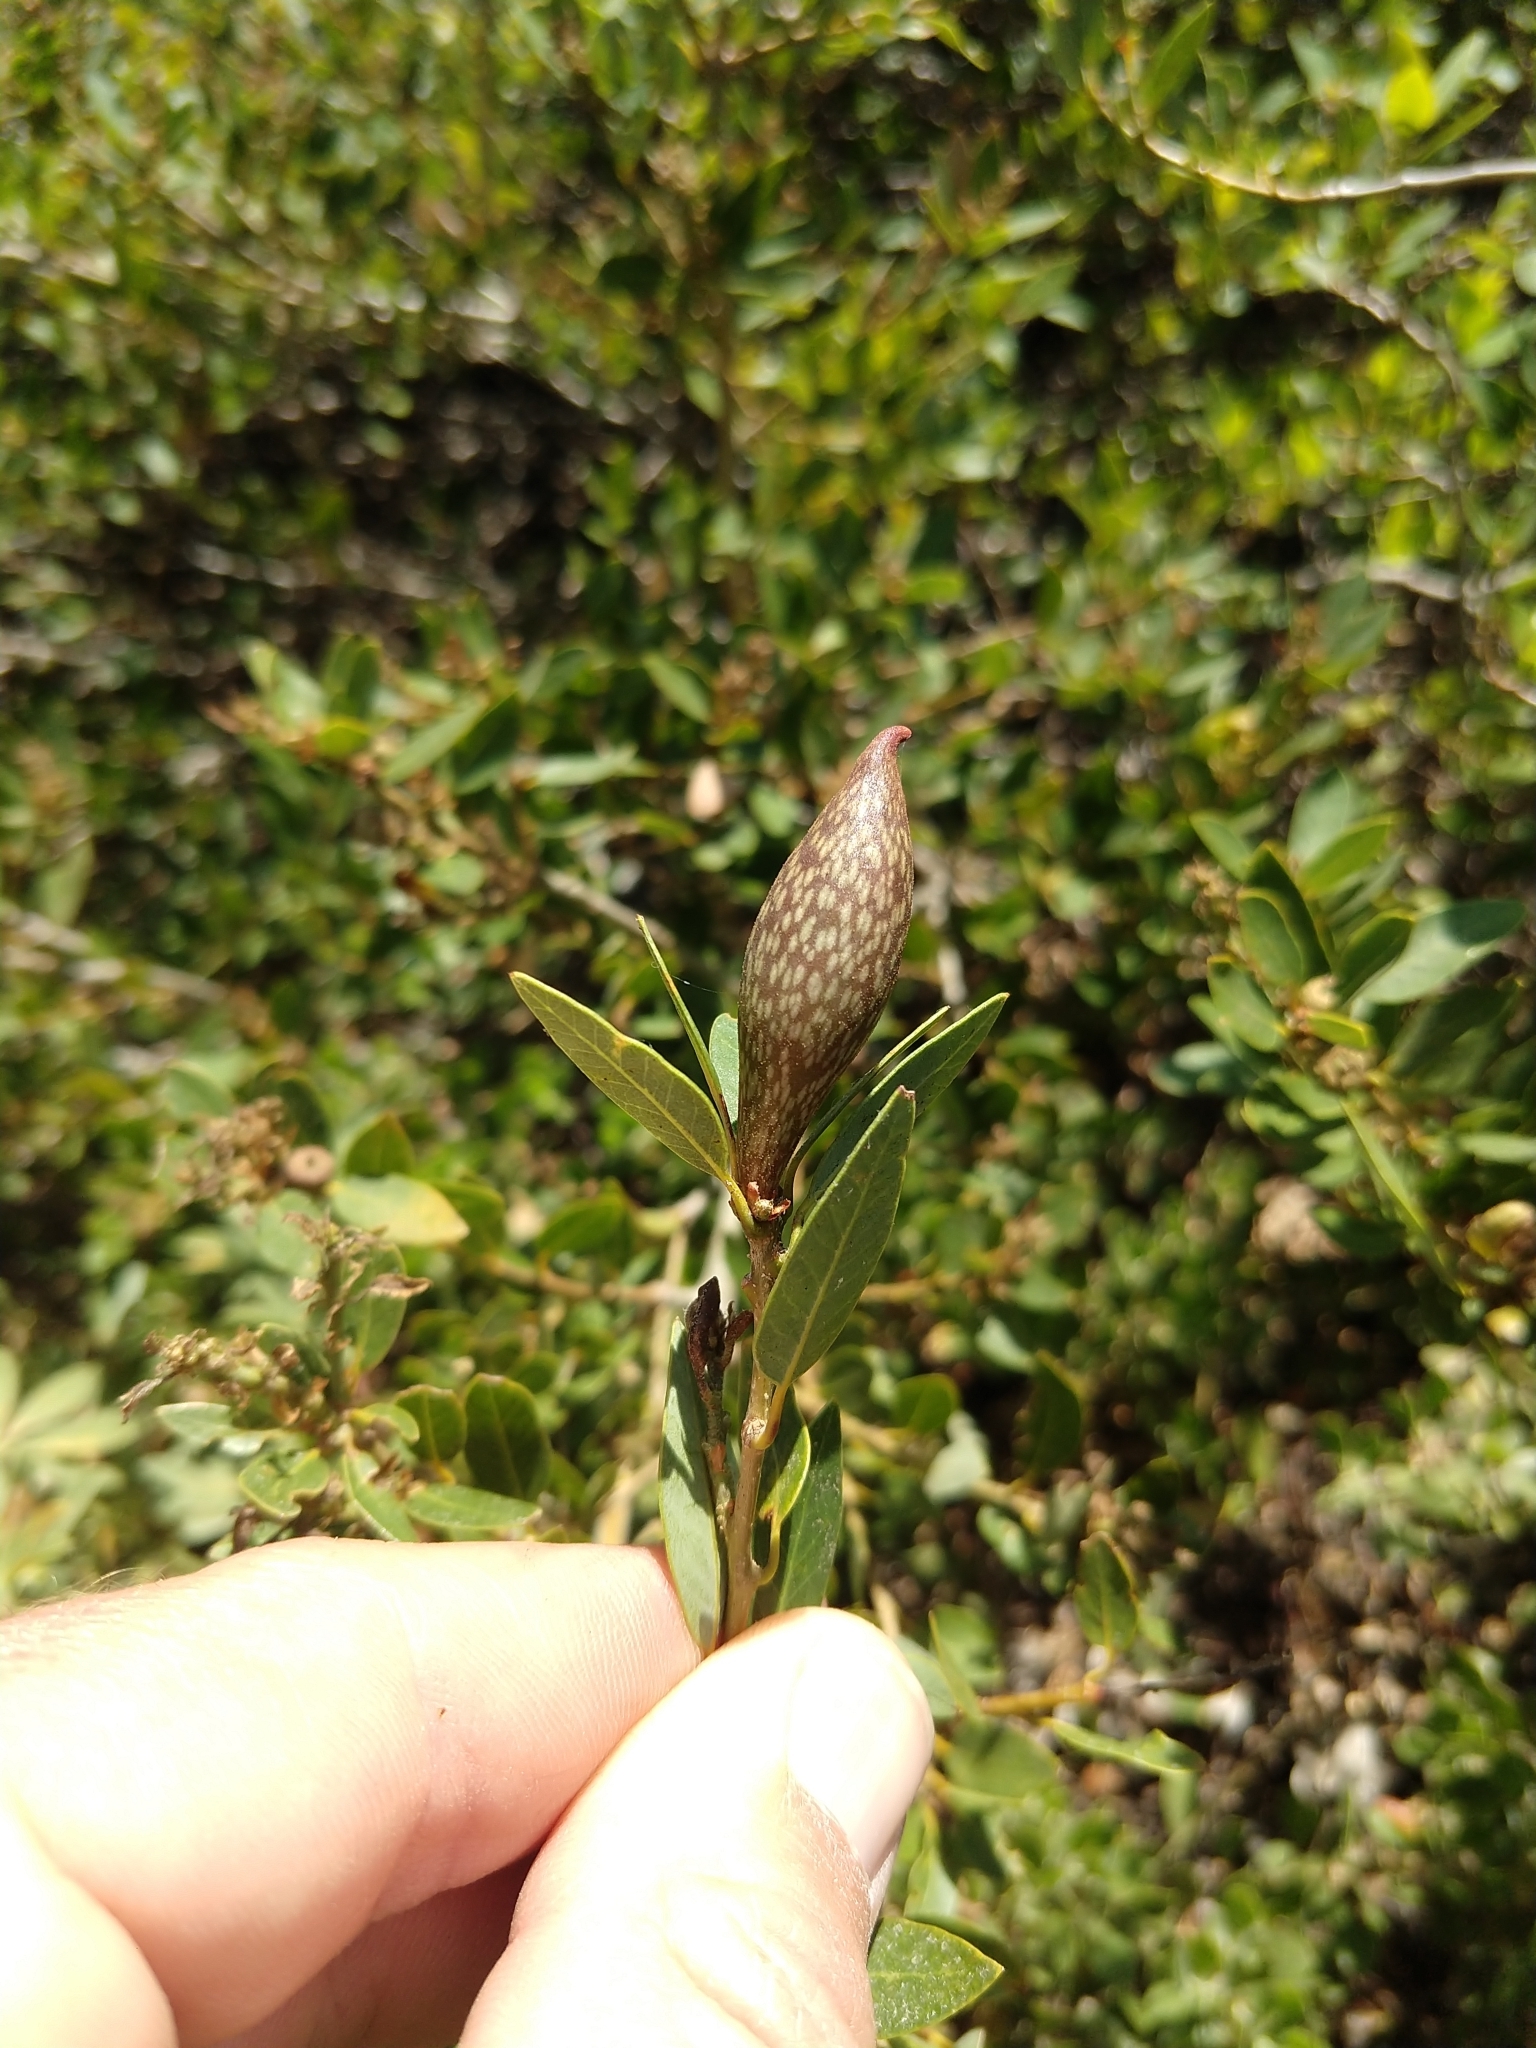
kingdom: Animalia
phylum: Arthropoda
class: Insecta
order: Hymenoptera
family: Cynipidae
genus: Heteroecus
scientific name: Heteroecus pacificus
